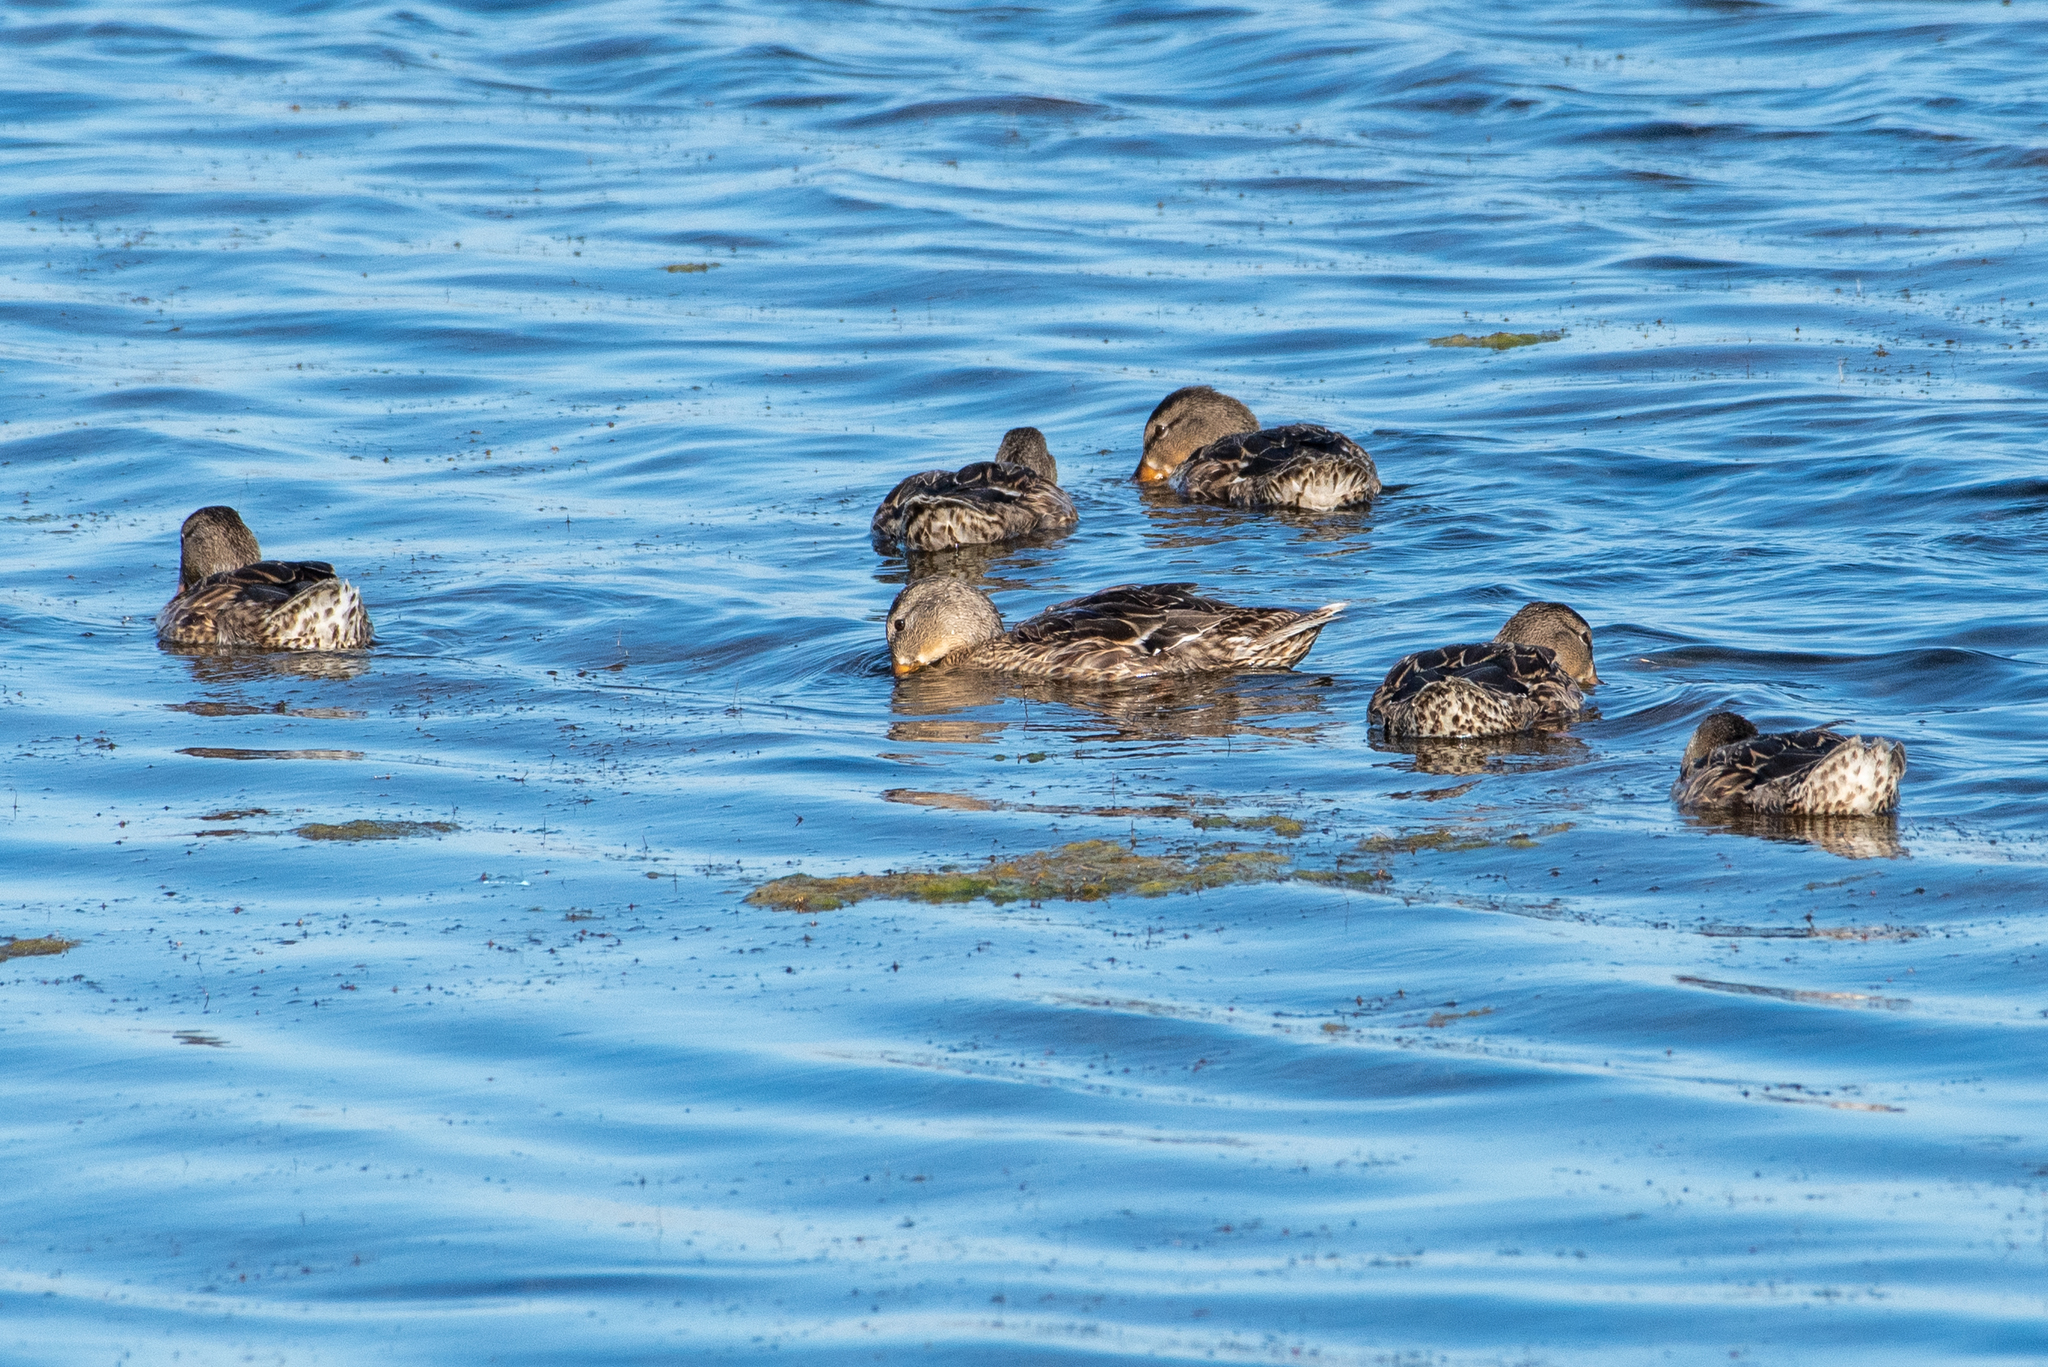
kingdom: Animalia
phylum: Chordata
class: Aves
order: Anseriformes
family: Anatidae
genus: Anas
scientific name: Anas platyrhynchos
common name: Mallard
